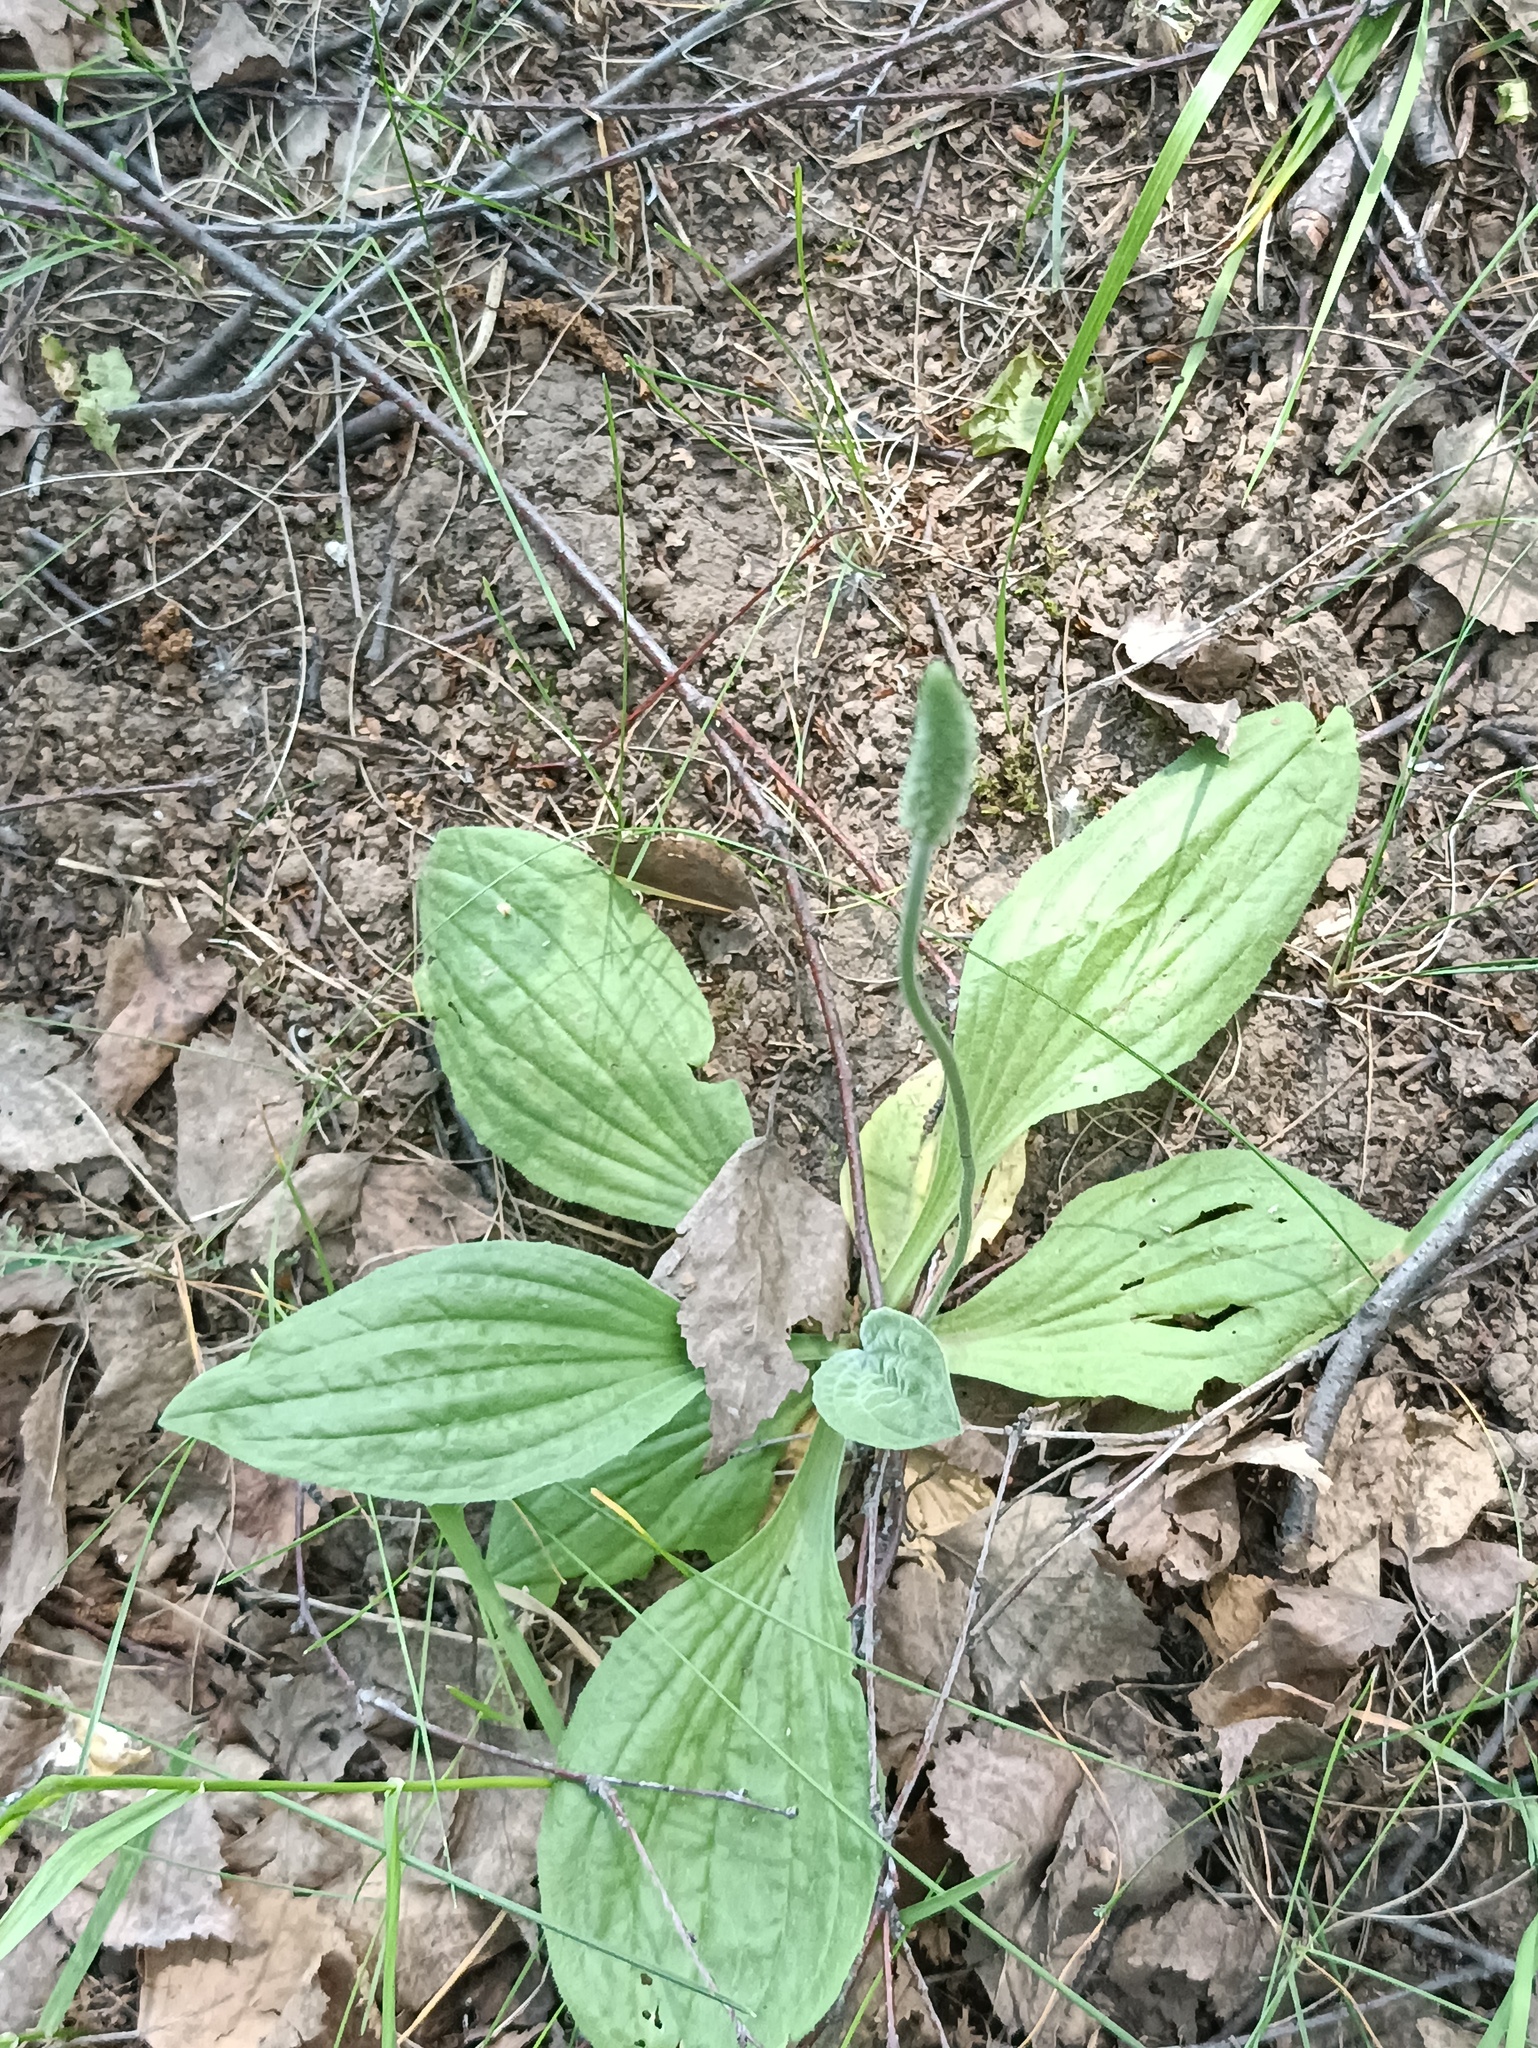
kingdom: Plantae
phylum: Tracheophyta
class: Magnoliopsida
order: Lamiales
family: Plantaginaceae
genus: Plantago
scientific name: Plantago urvillei
